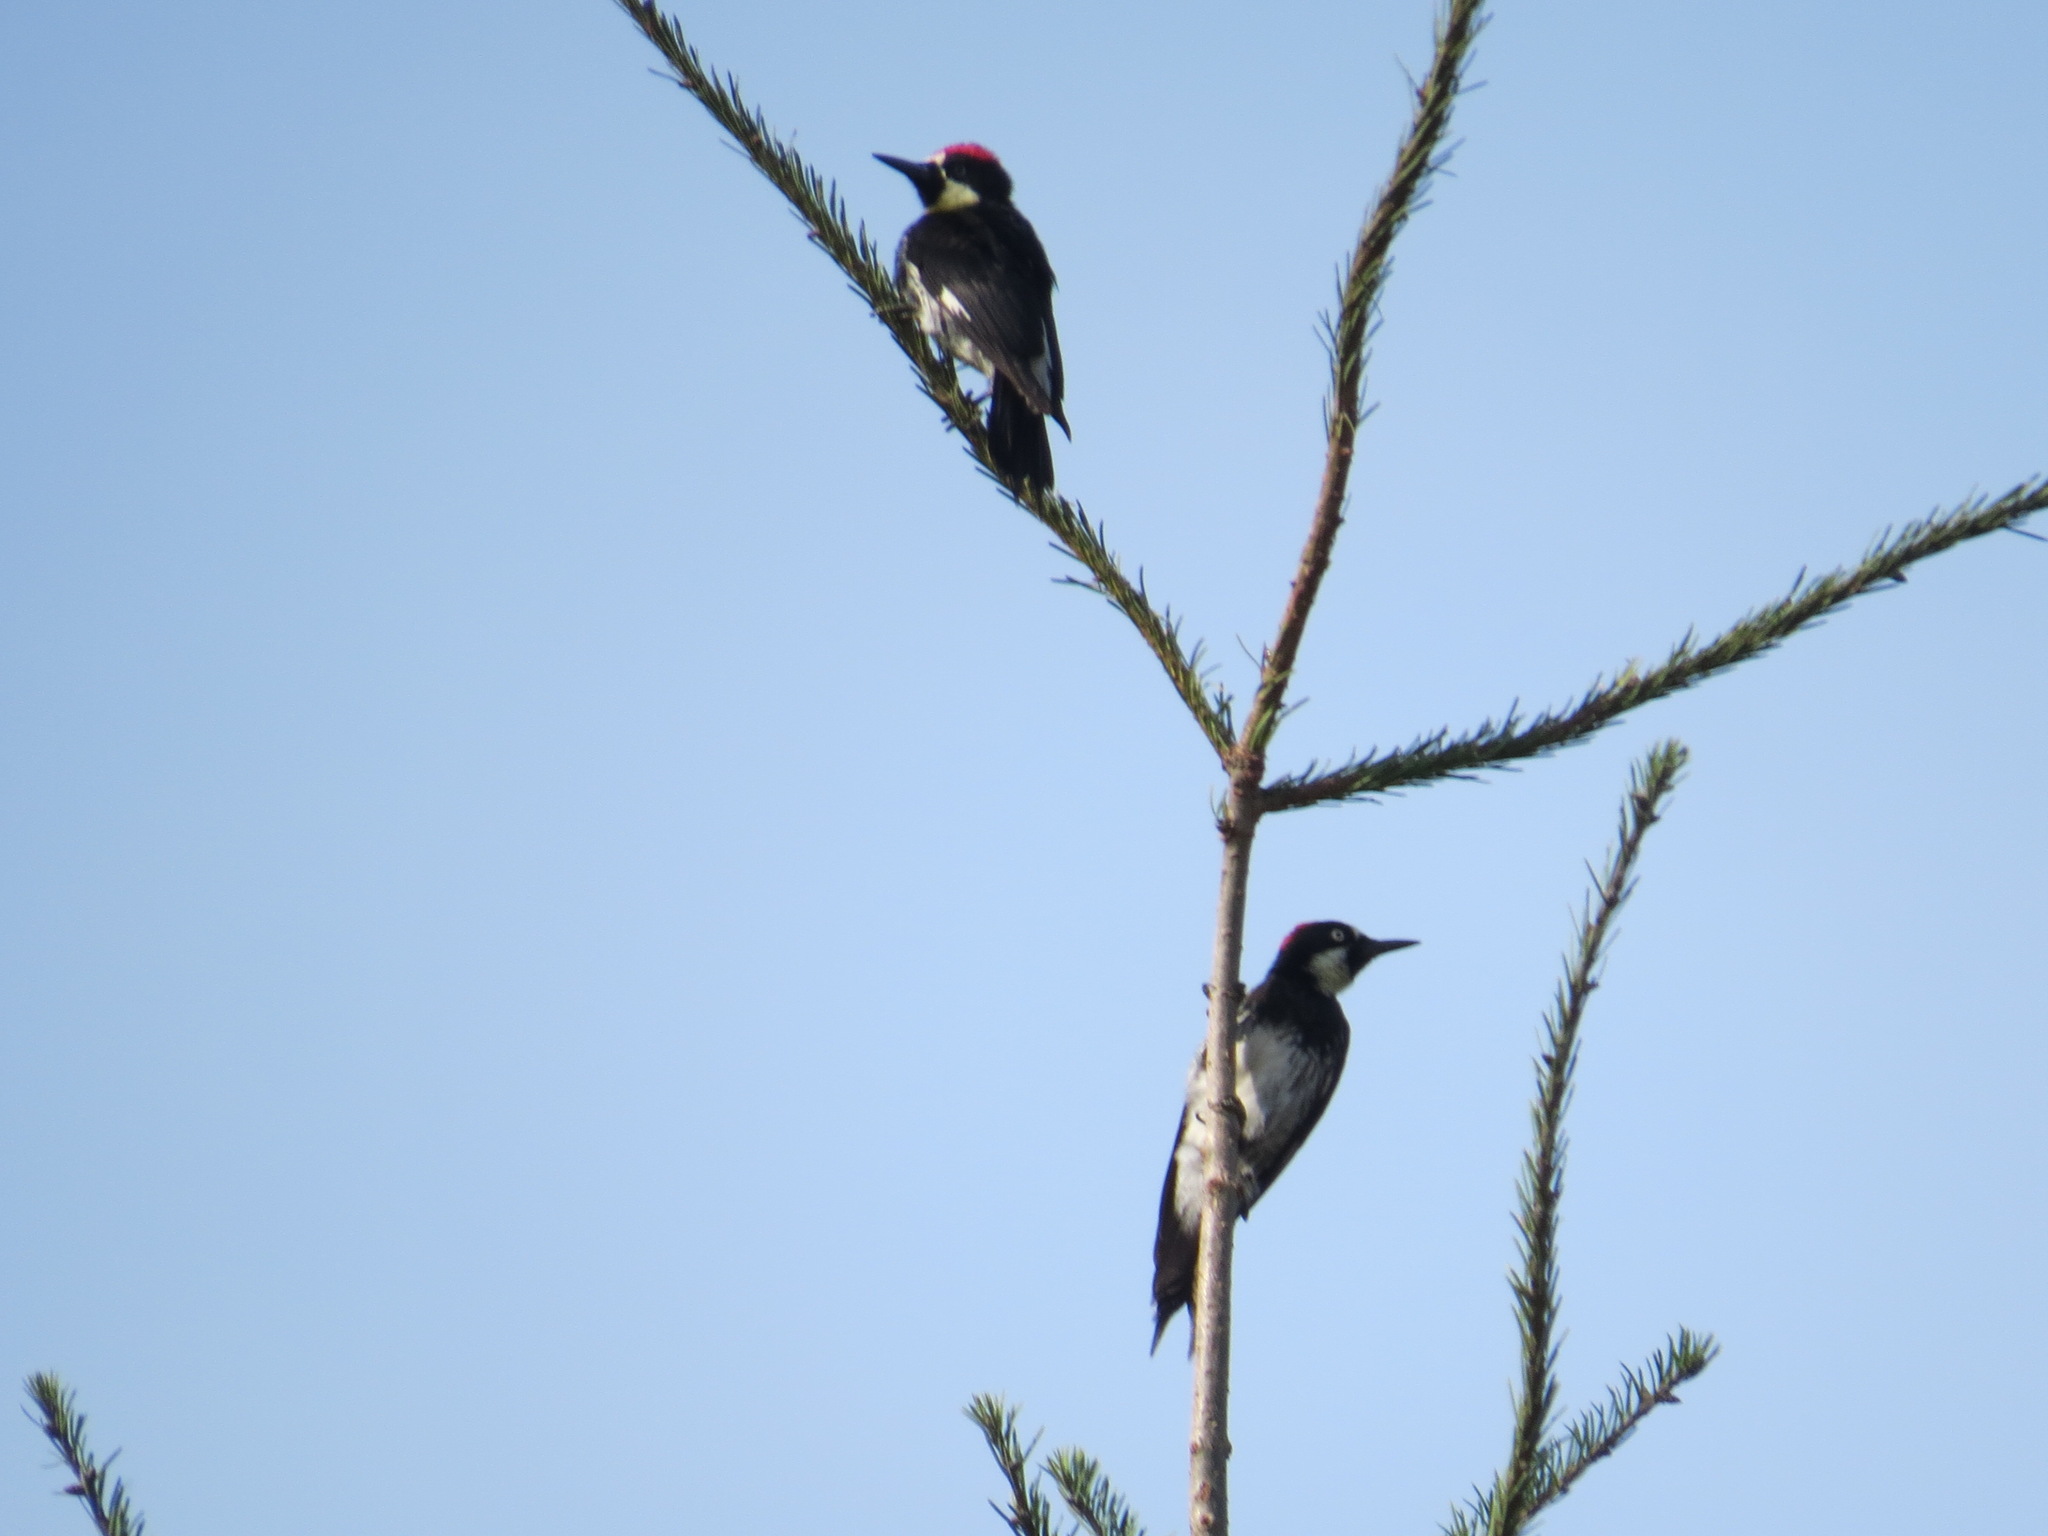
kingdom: Animalia
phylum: Chordata
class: Aves
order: Piciformes
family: Picidae
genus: Melanerpes
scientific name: Melanerpes formicivorus
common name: Acorn woodpecker
